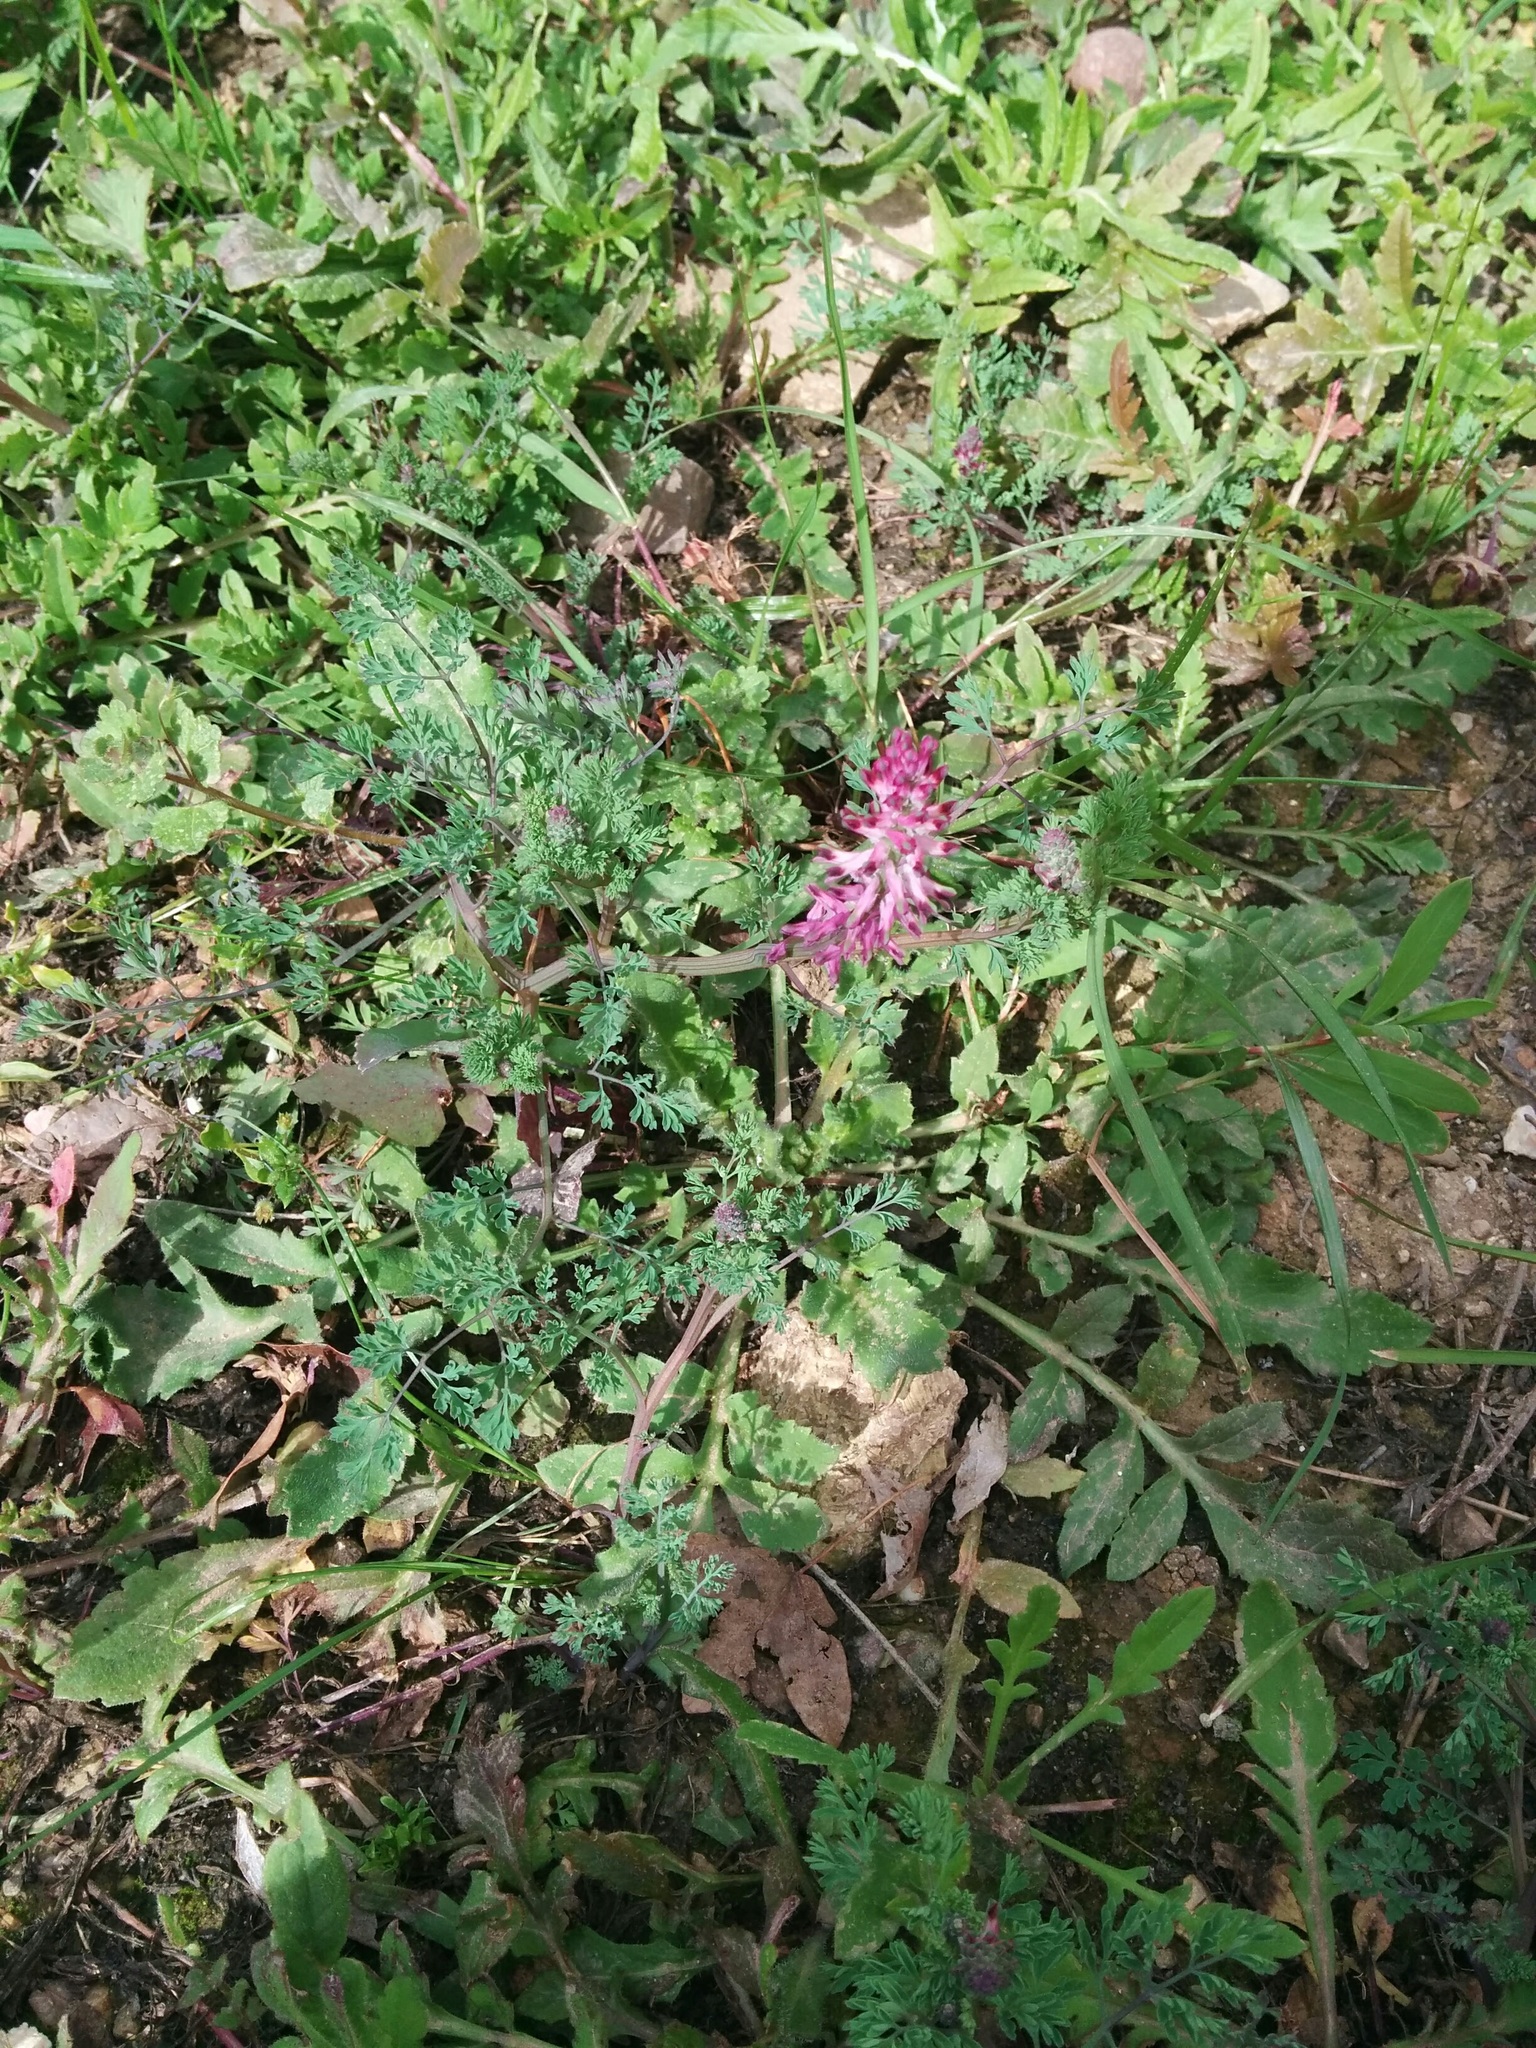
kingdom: Plantae
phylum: Tracheophyta
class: Magnoliopsida
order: Ranunculales
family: Papaveraceae
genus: Fumaria
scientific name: Fumaria officinalis
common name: Common fumitory
